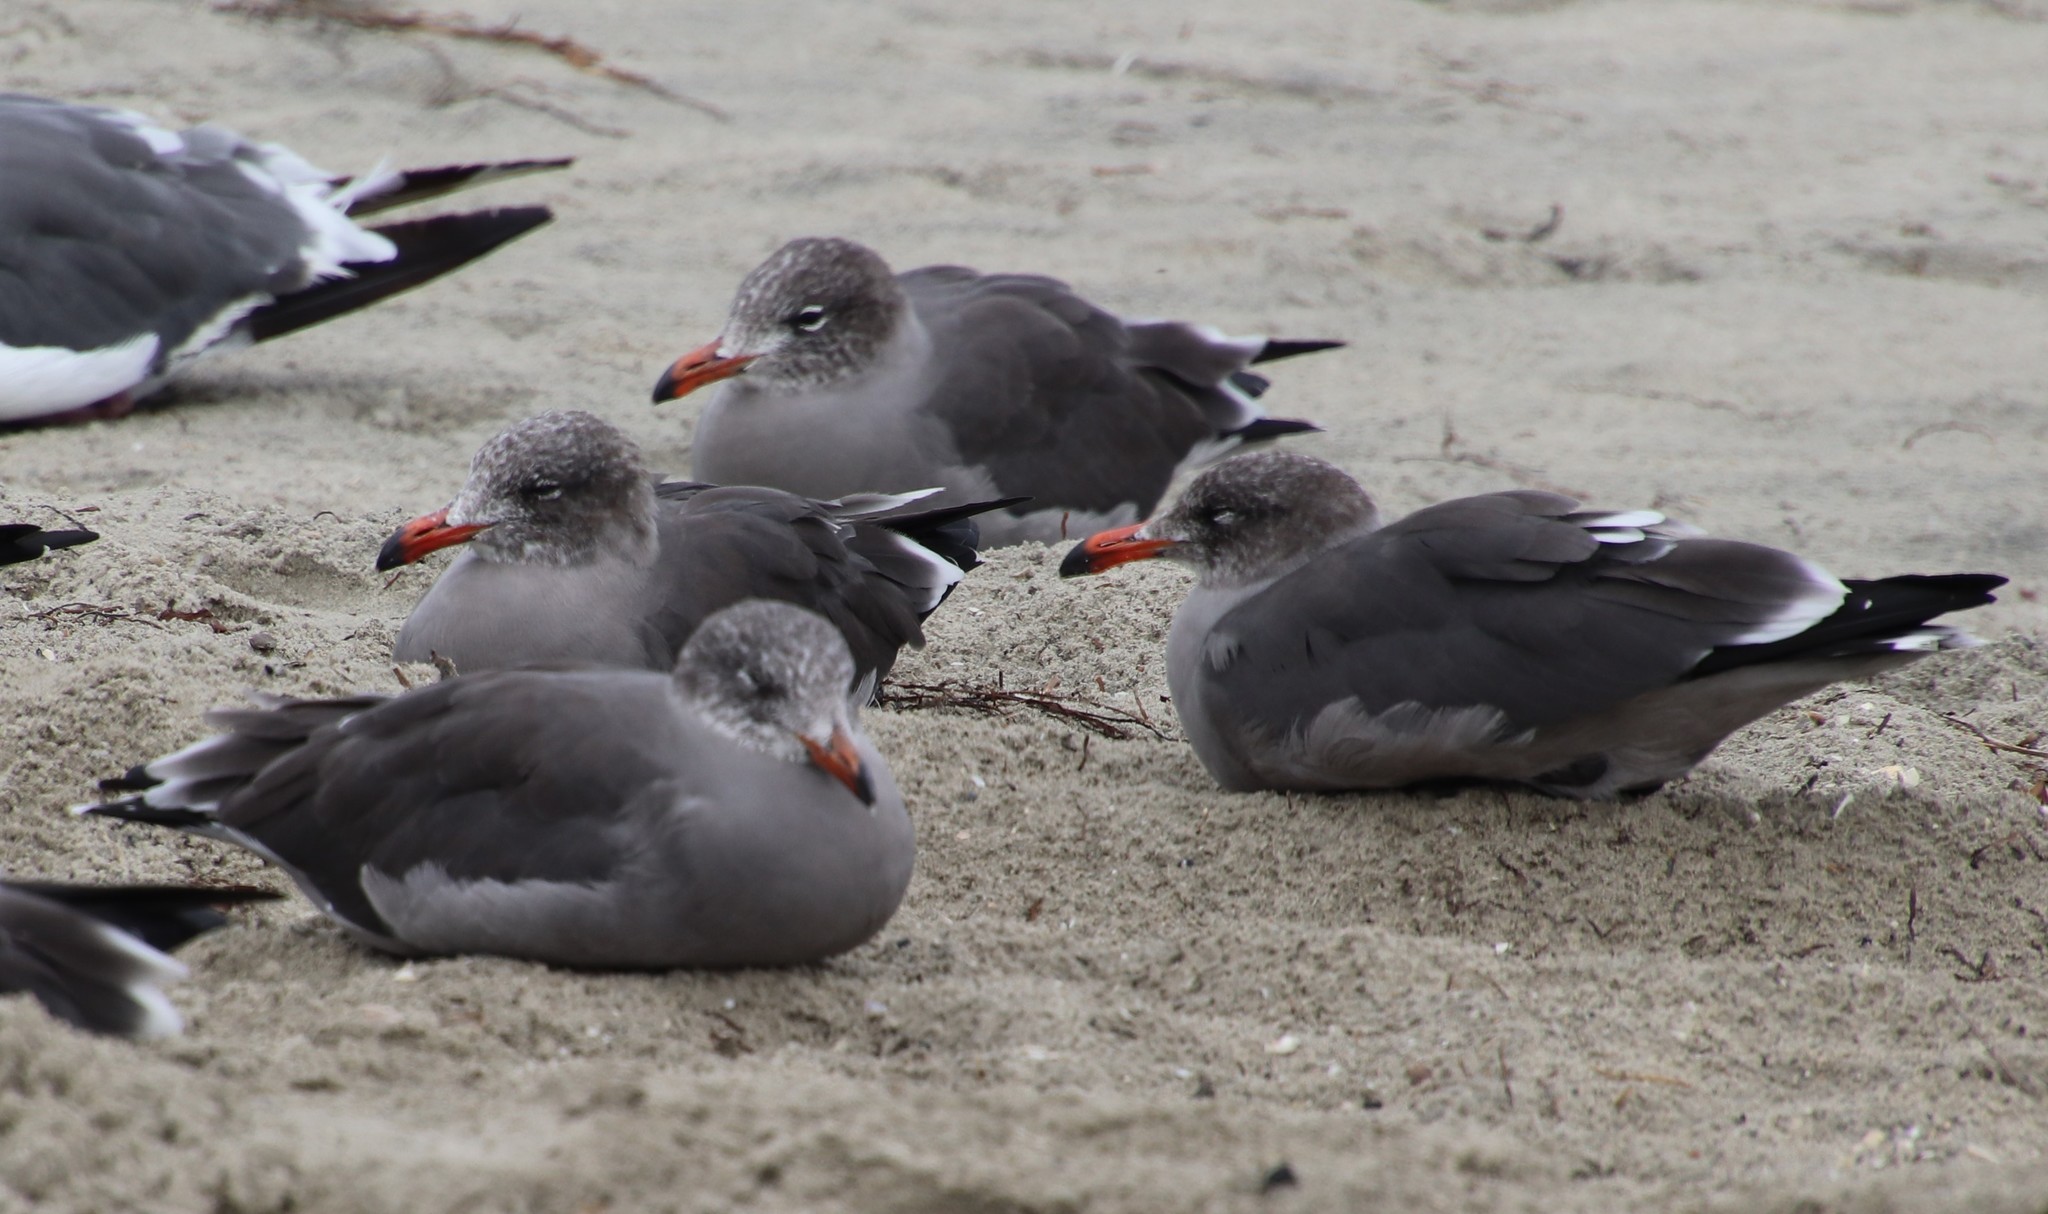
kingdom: Animalia
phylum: Chordata
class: Aves
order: Charadriiformes
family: Laridae
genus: Larus
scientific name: Larus heermanni
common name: Heermann's gull
